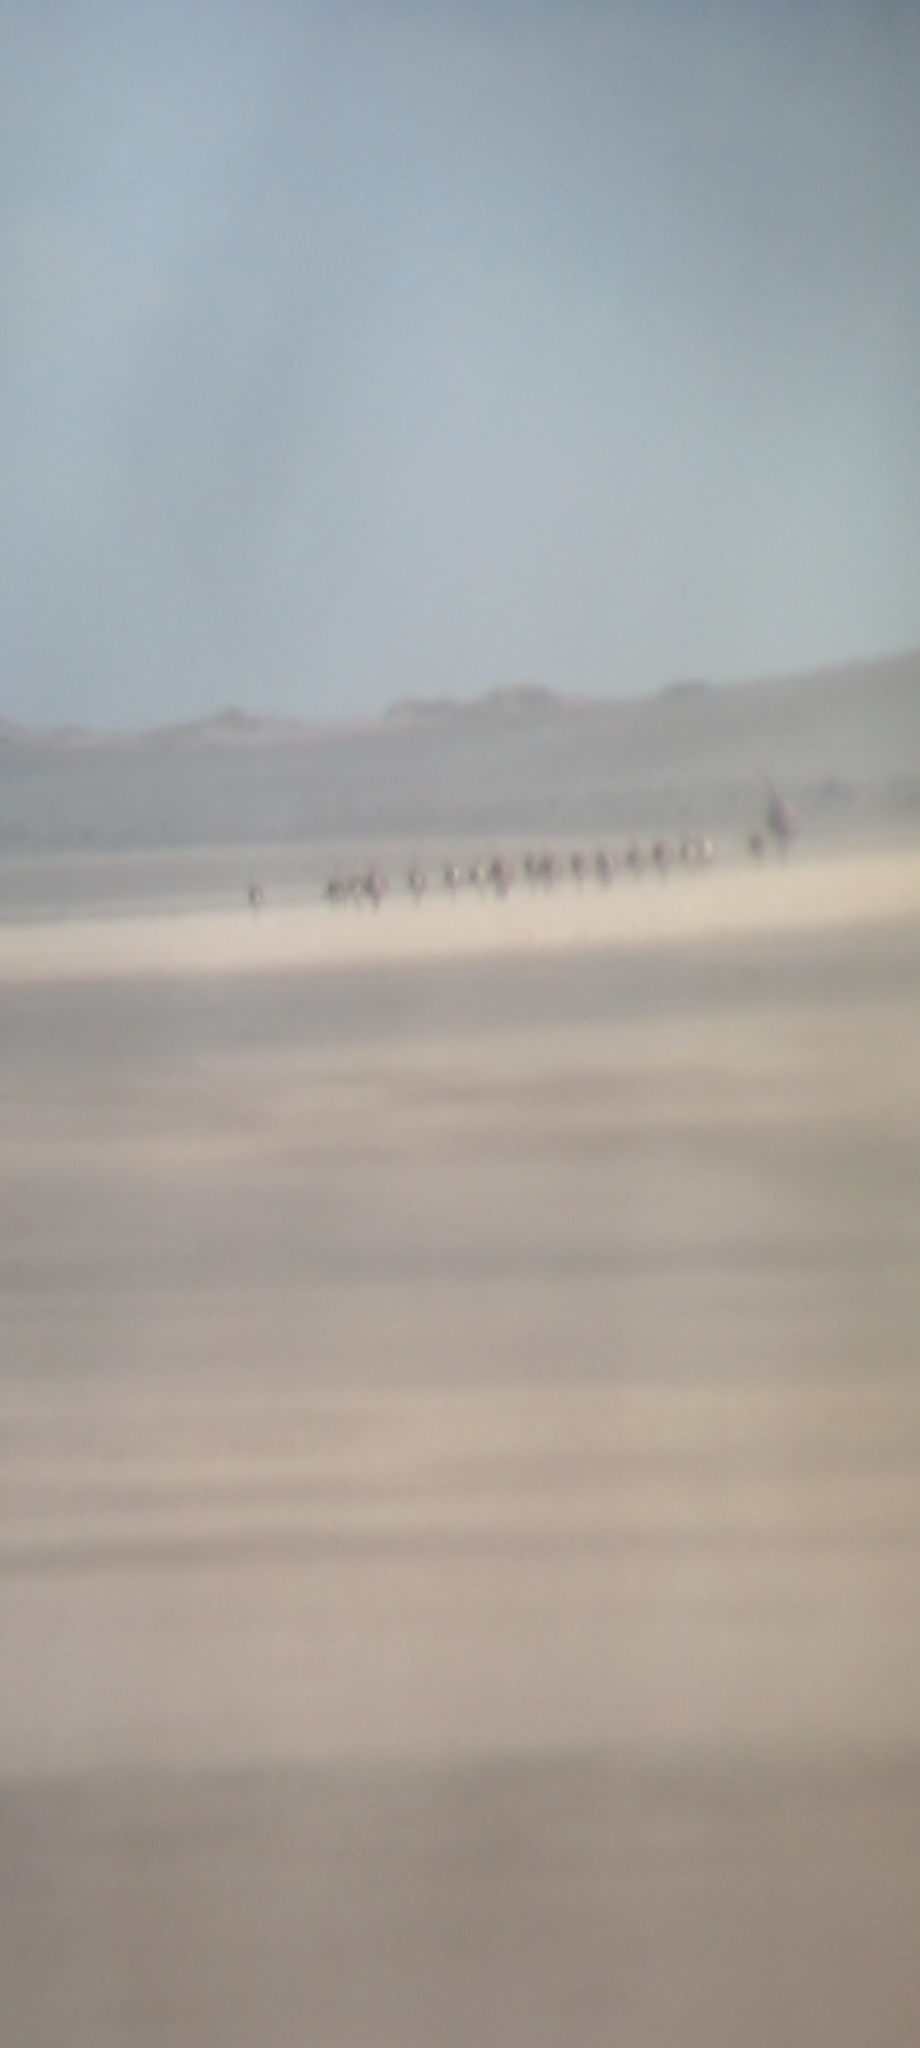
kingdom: Animalia
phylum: Chordata
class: Aves
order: Rheiformes
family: Rheidae
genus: Rhea
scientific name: Rhea americana
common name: Greater rhea
